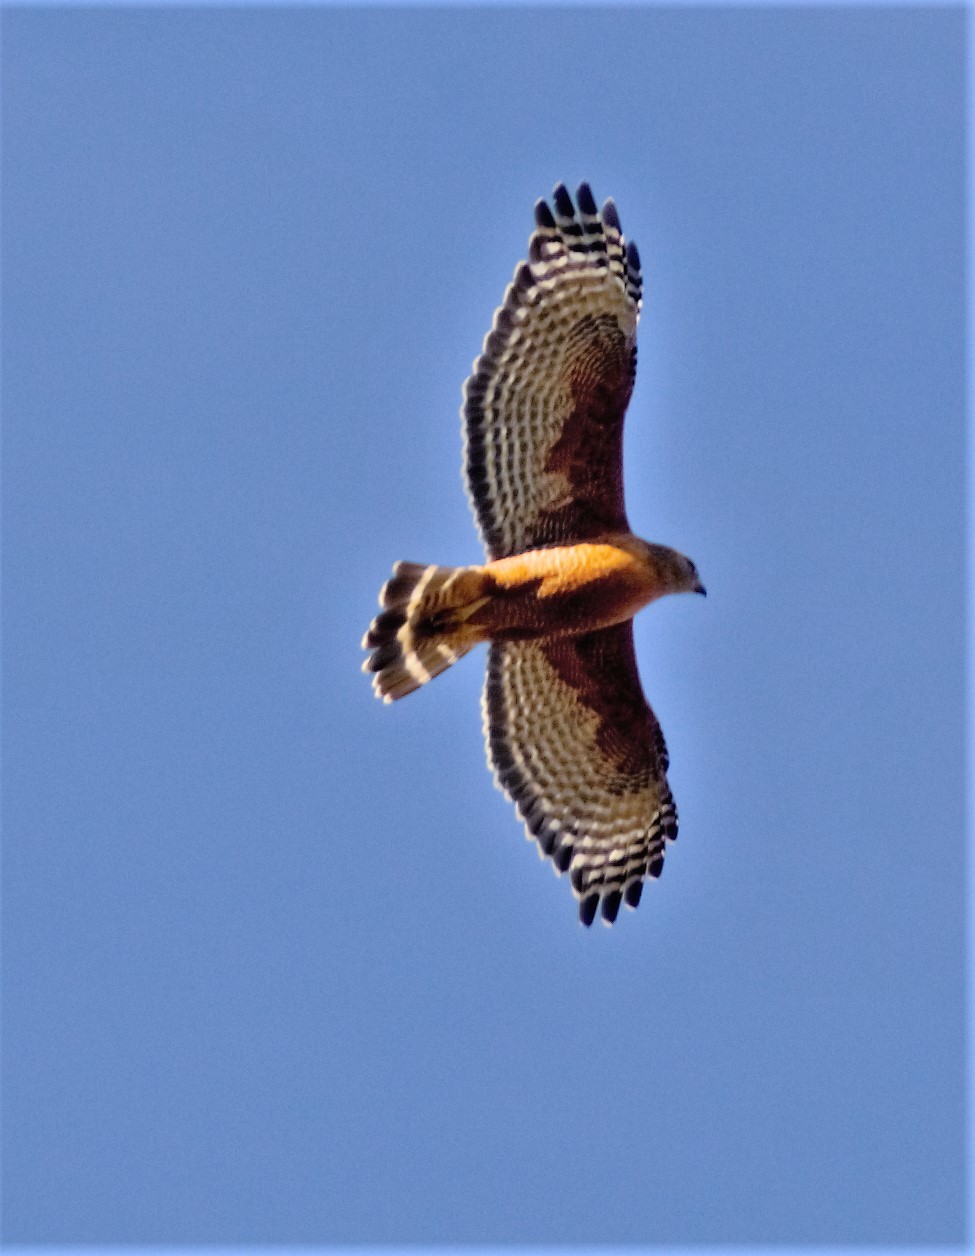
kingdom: Animalia
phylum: Chordata
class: Aves
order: Accipitriformes
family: Accipitridae
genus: Buteo
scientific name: Buteo lineatus
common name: Red-shouldered hawk
